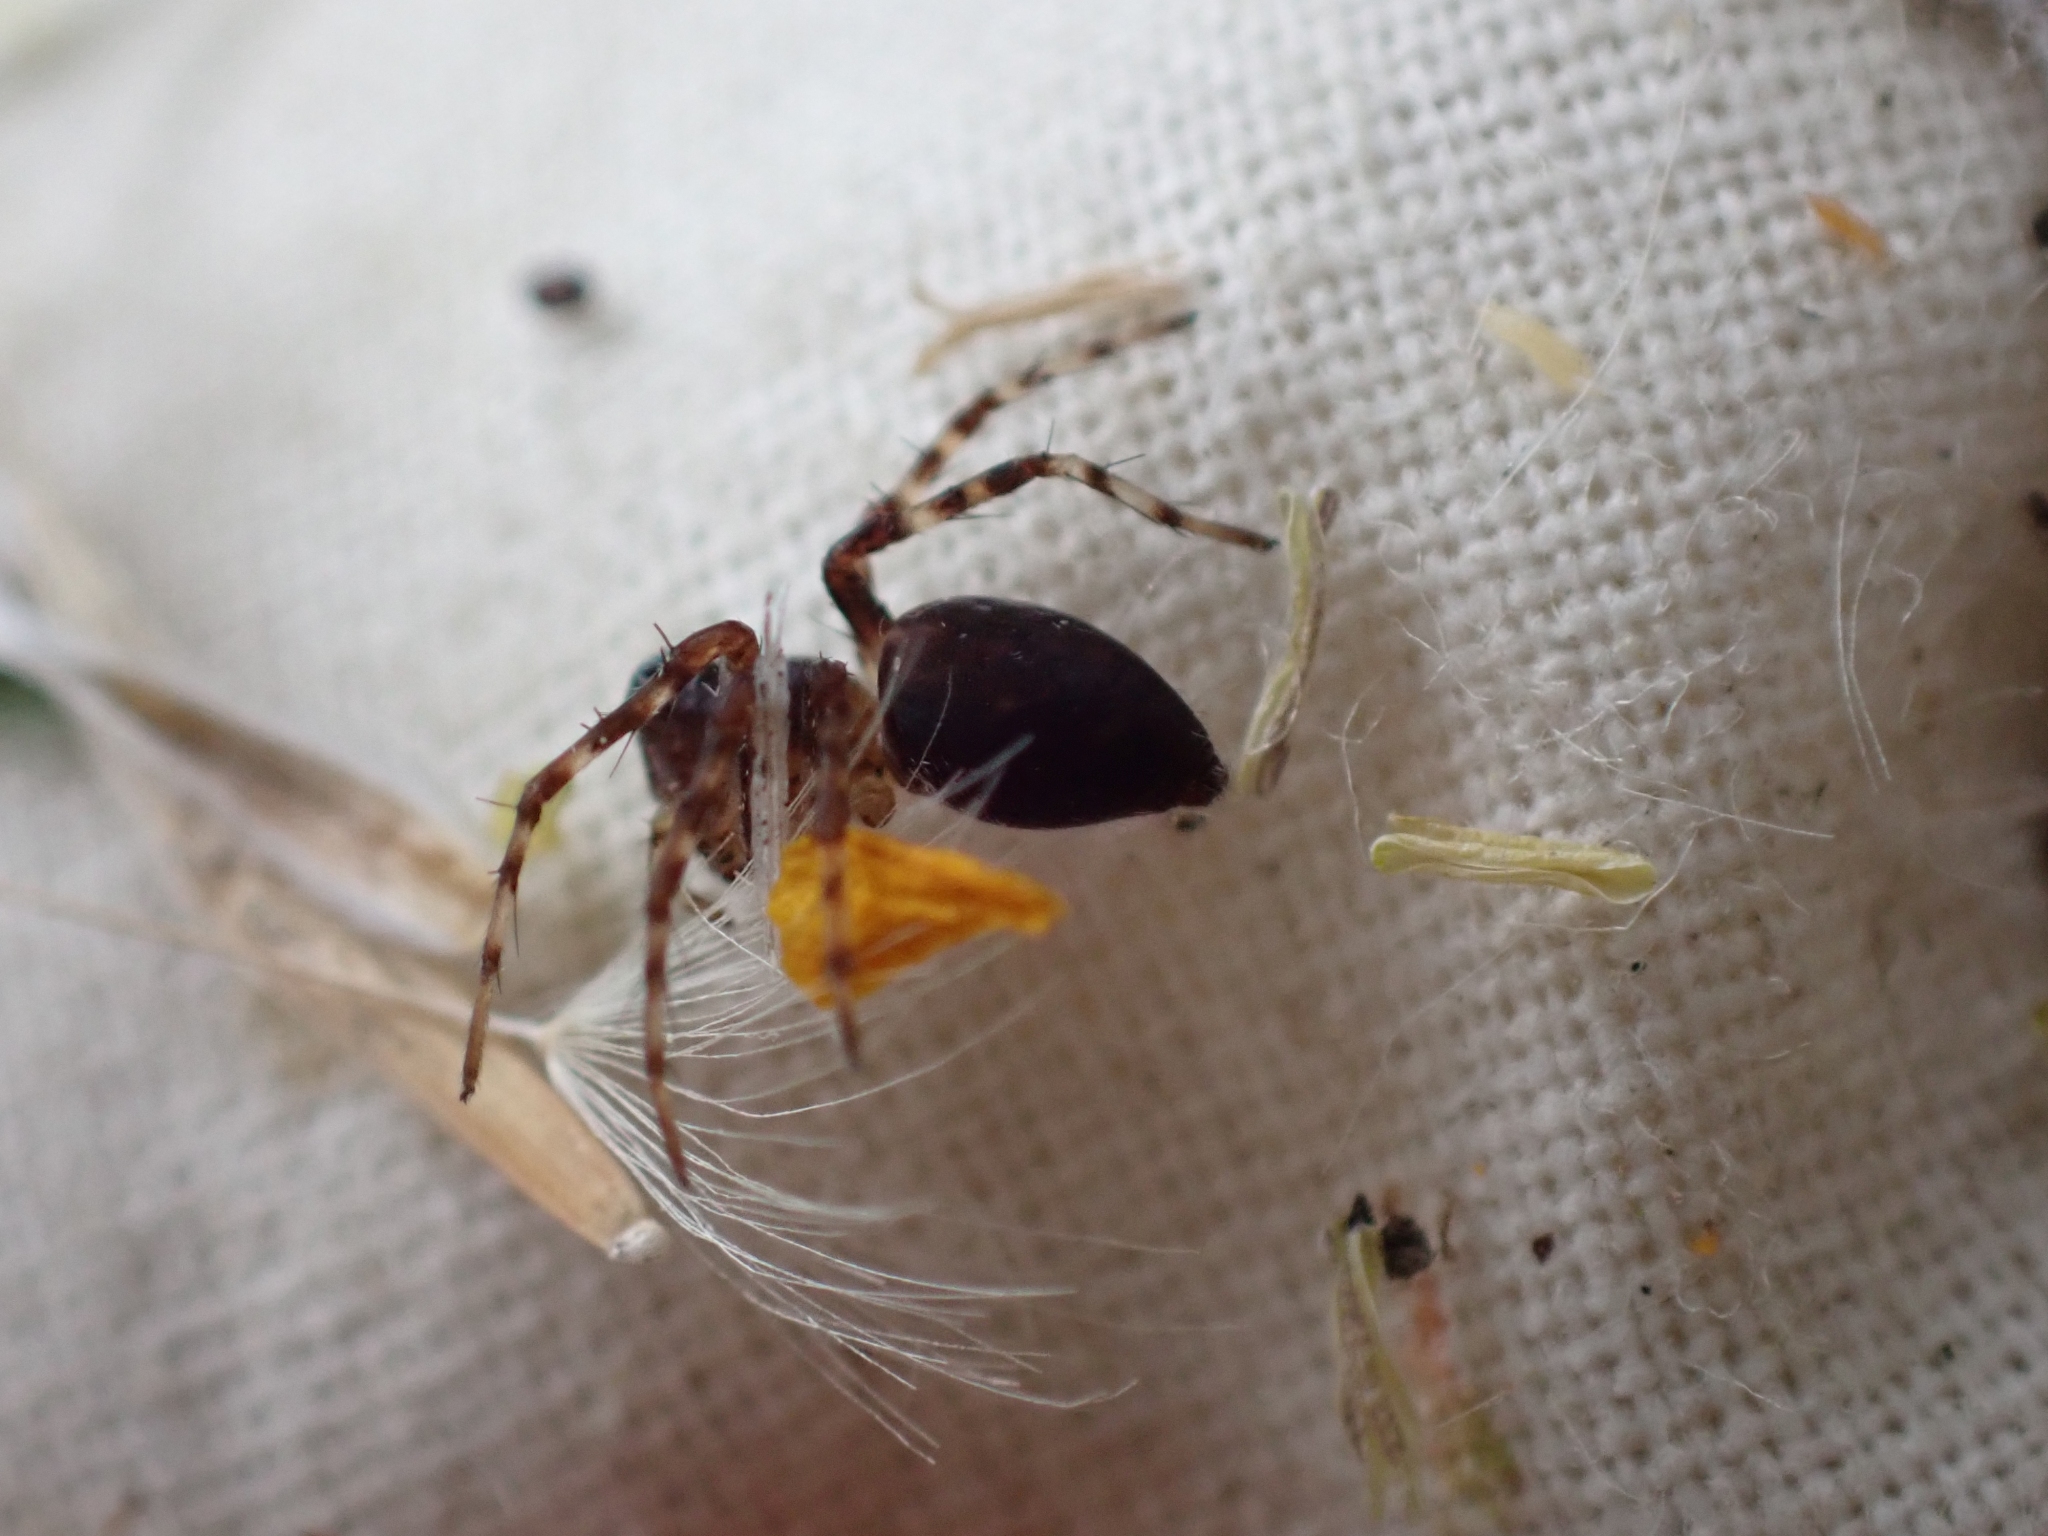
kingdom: Animalia
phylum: Arthropoda
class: Arachnida
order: Araneae
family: Oxyopidae
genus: Oxyopes
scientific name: Oxyopes scalaris
